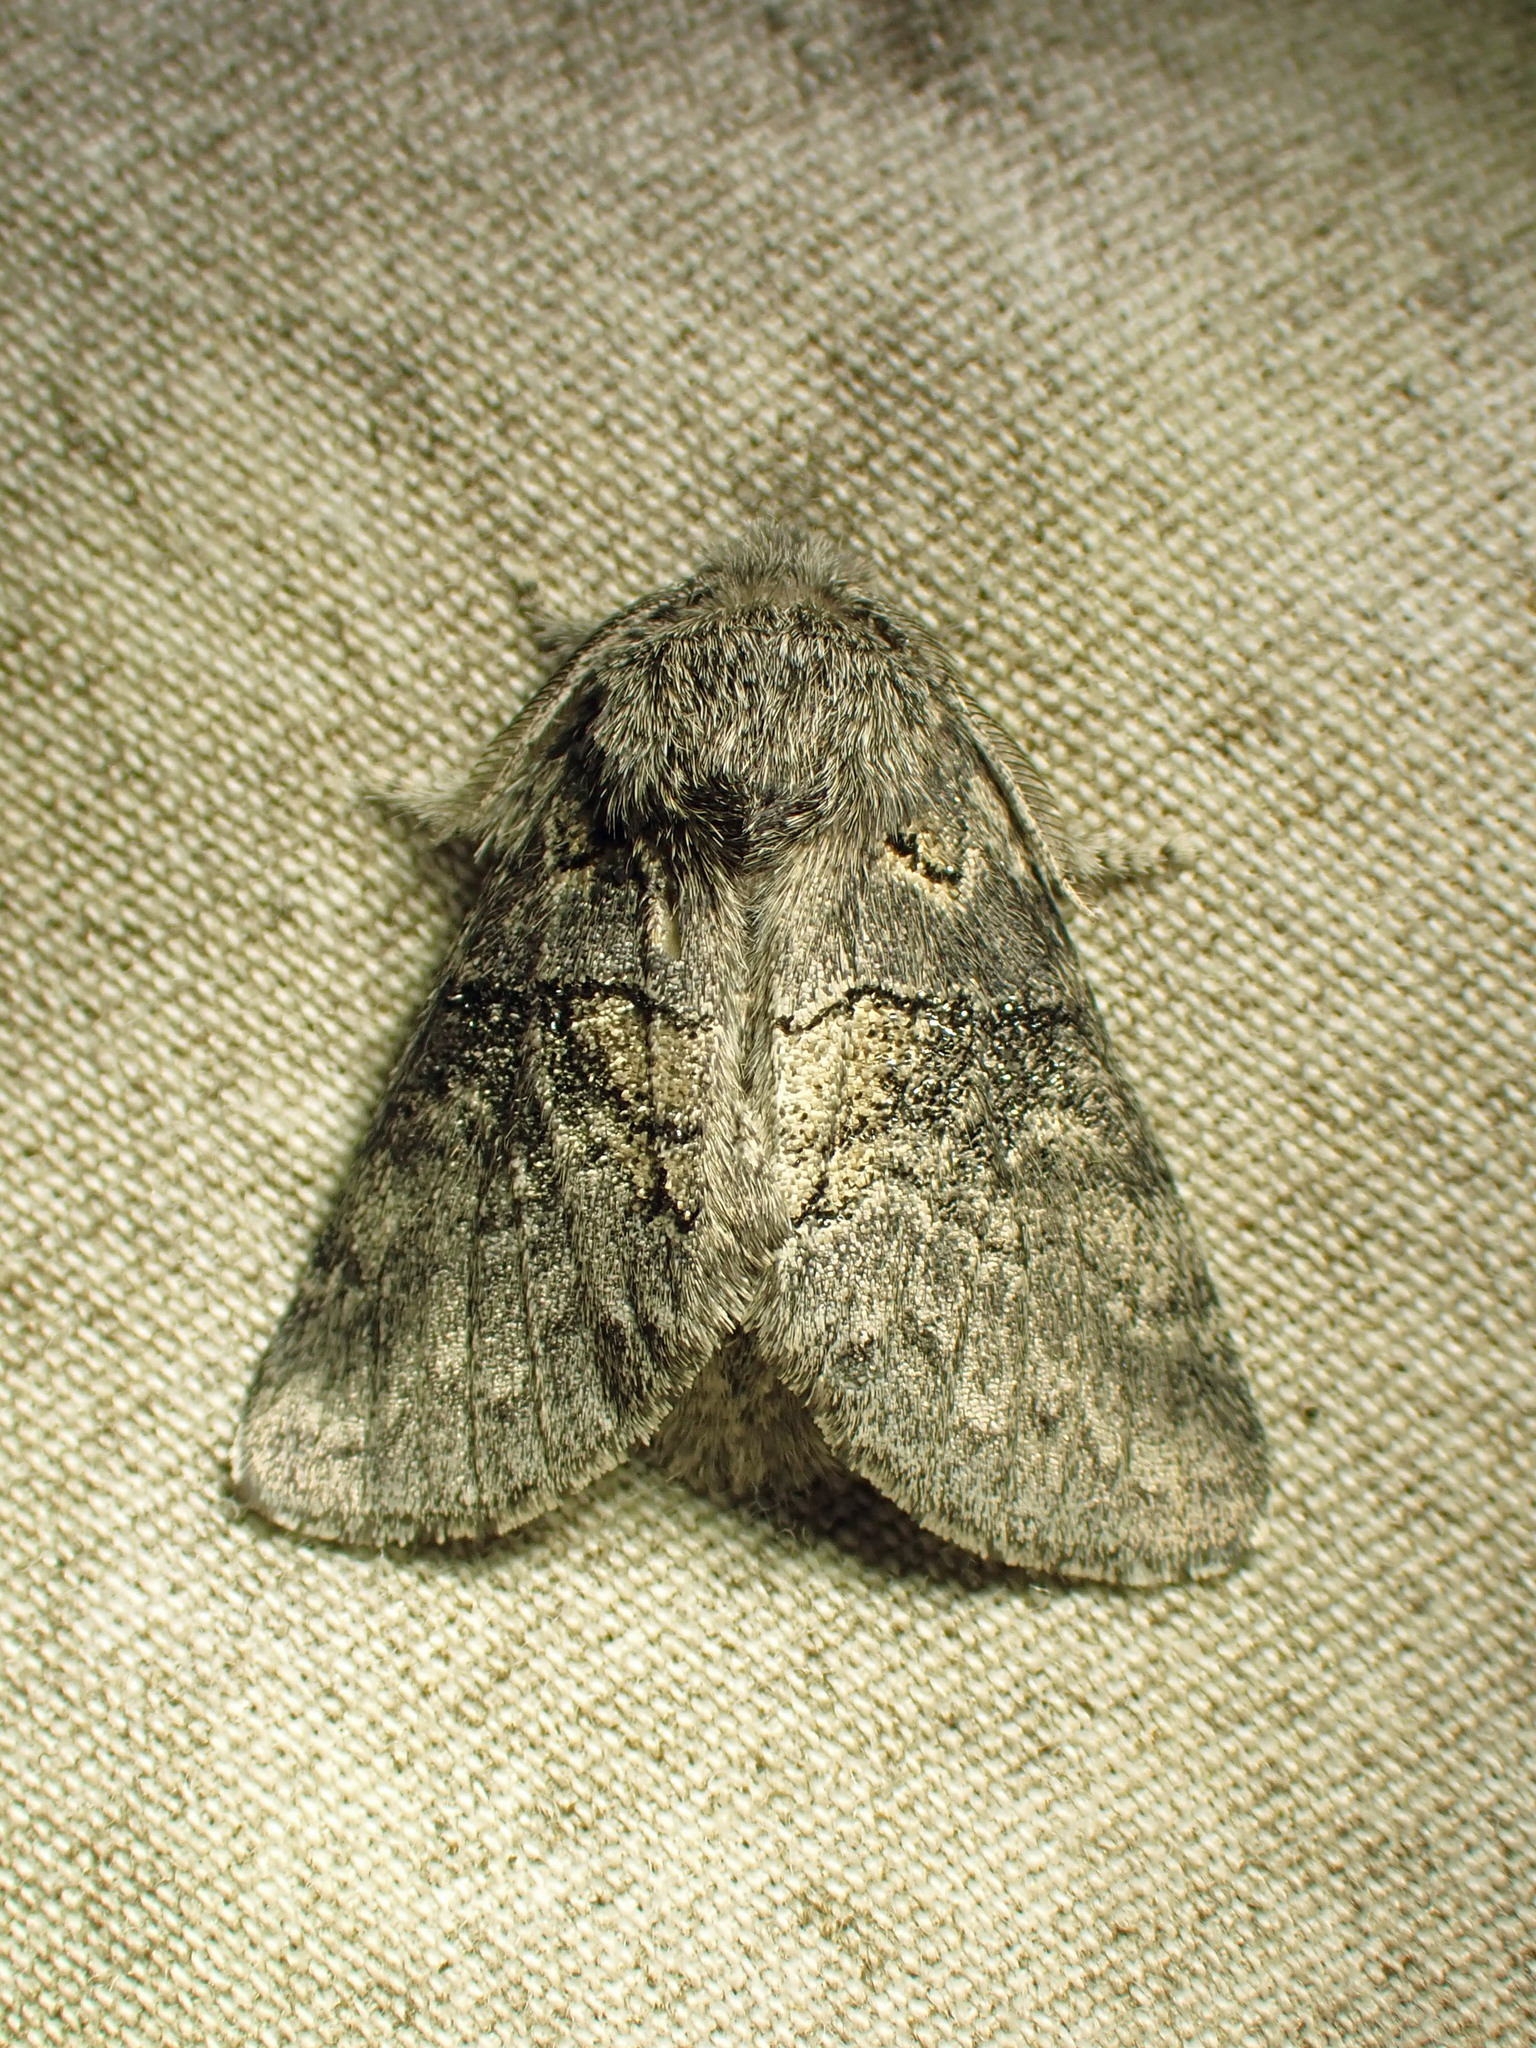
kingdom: Animalia
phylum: Arthropoda
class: Insecta
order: Lepidoptera
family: Notodontidae
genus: Gluphisia
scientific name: Gluphisia septentrionis
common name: Common gluphisia
